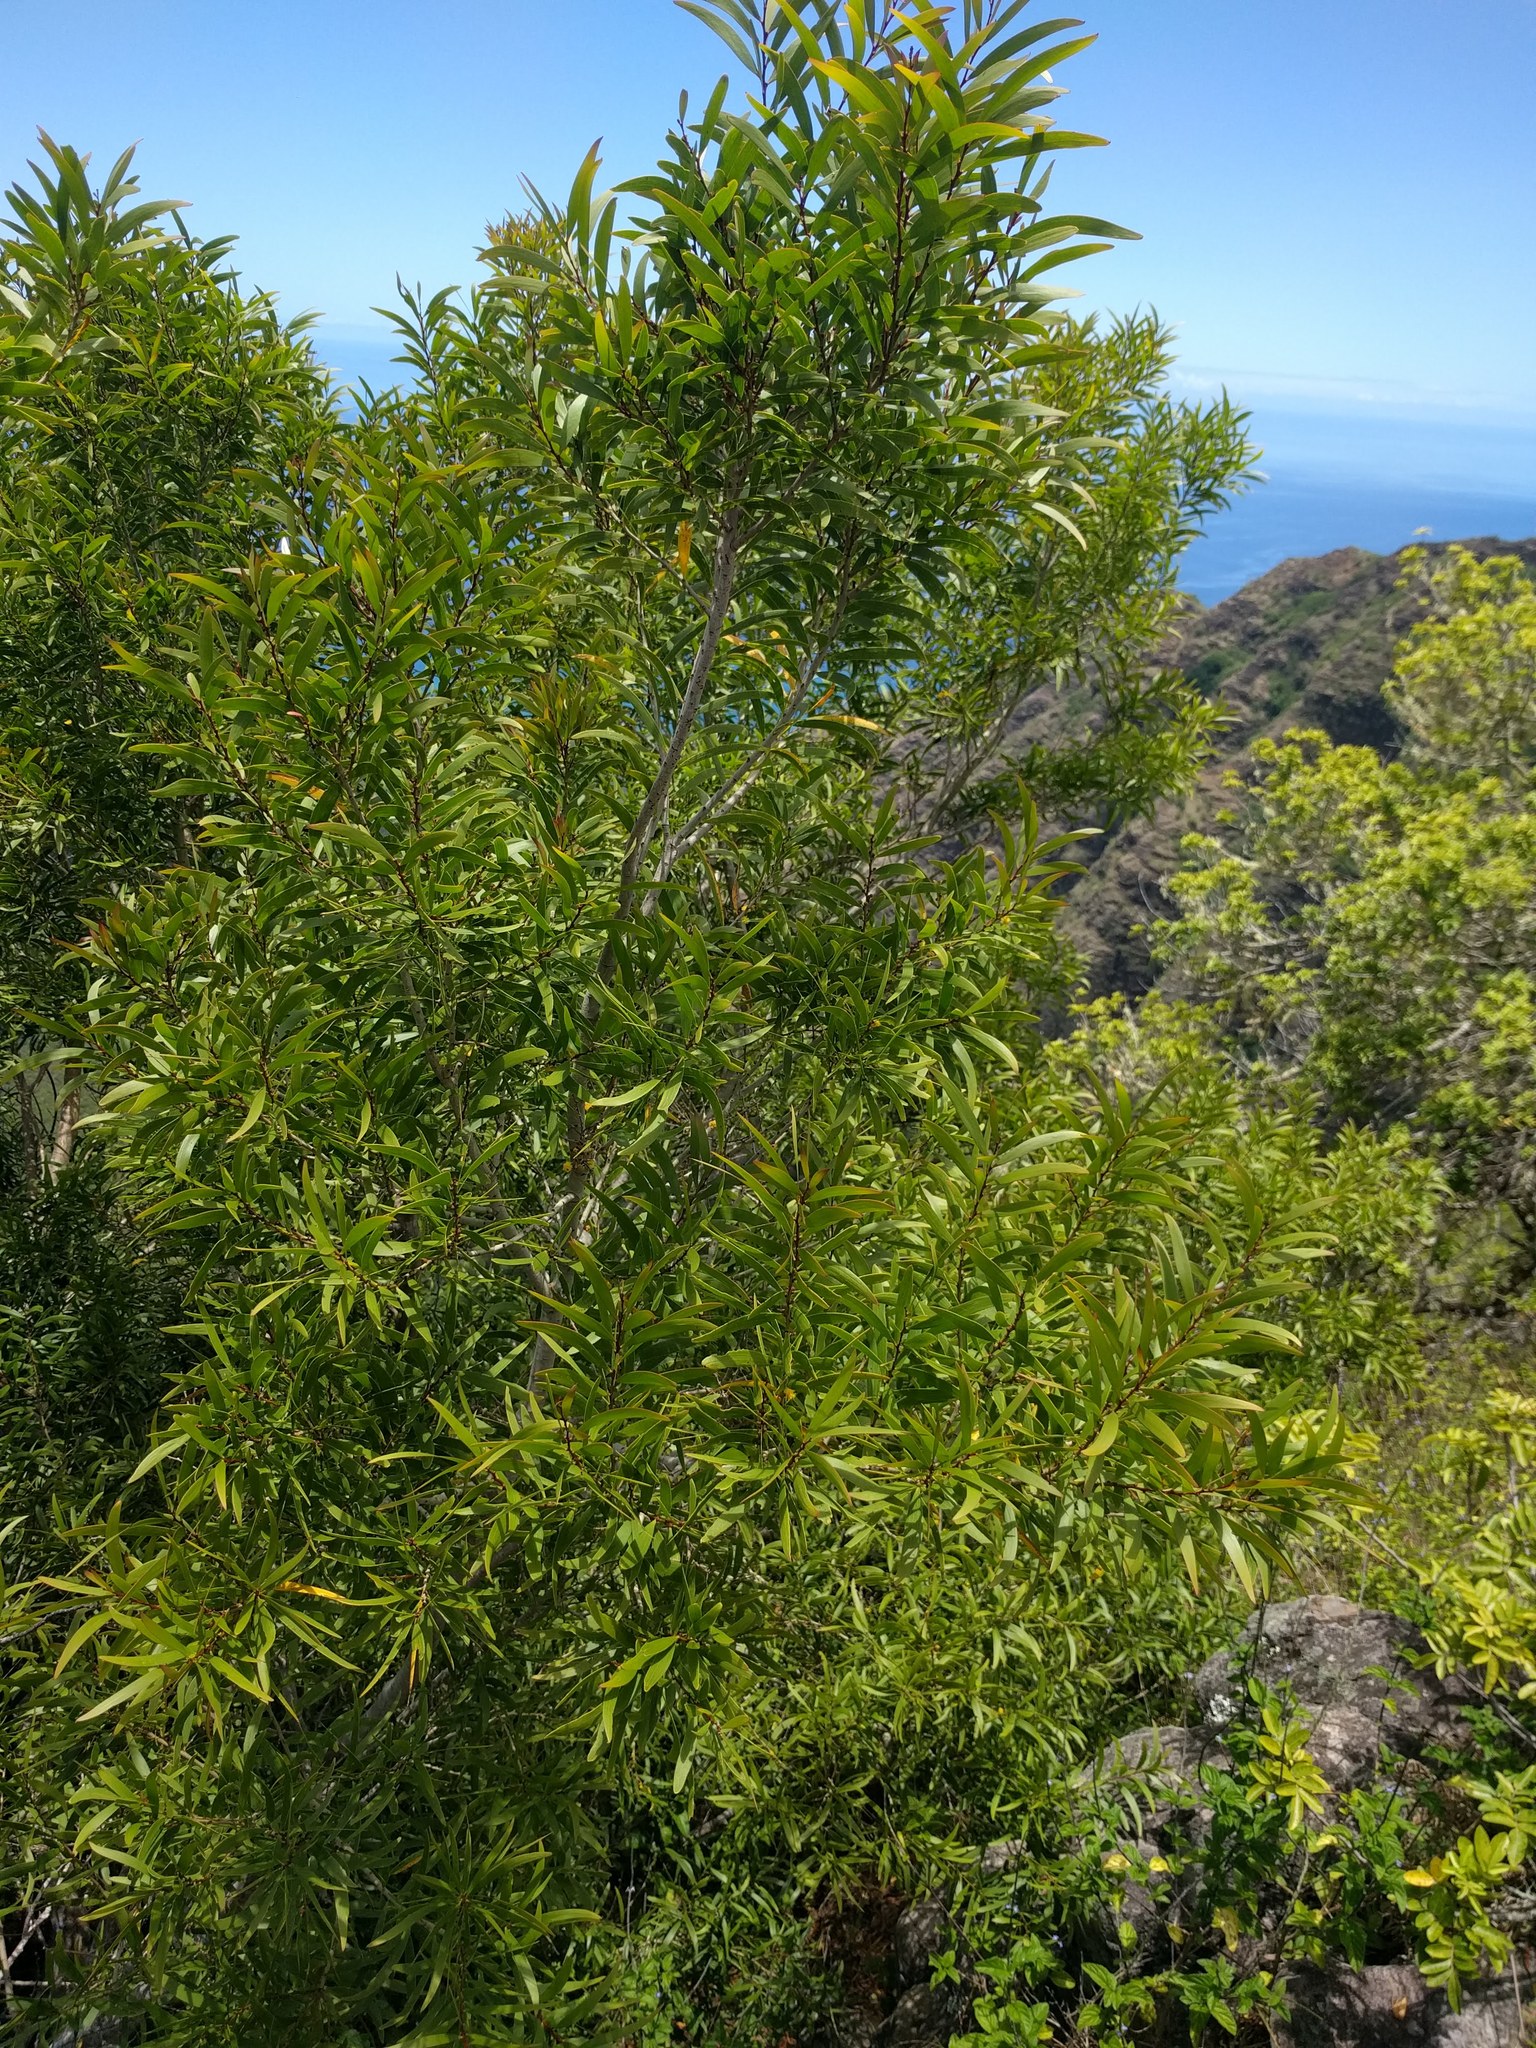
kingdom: Plantae
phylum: Tracheophyta
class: Magnoliopsida
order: Fabales
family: Fabaceae
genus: Acacia
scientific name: Acacia confusa
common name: Formosan koa
